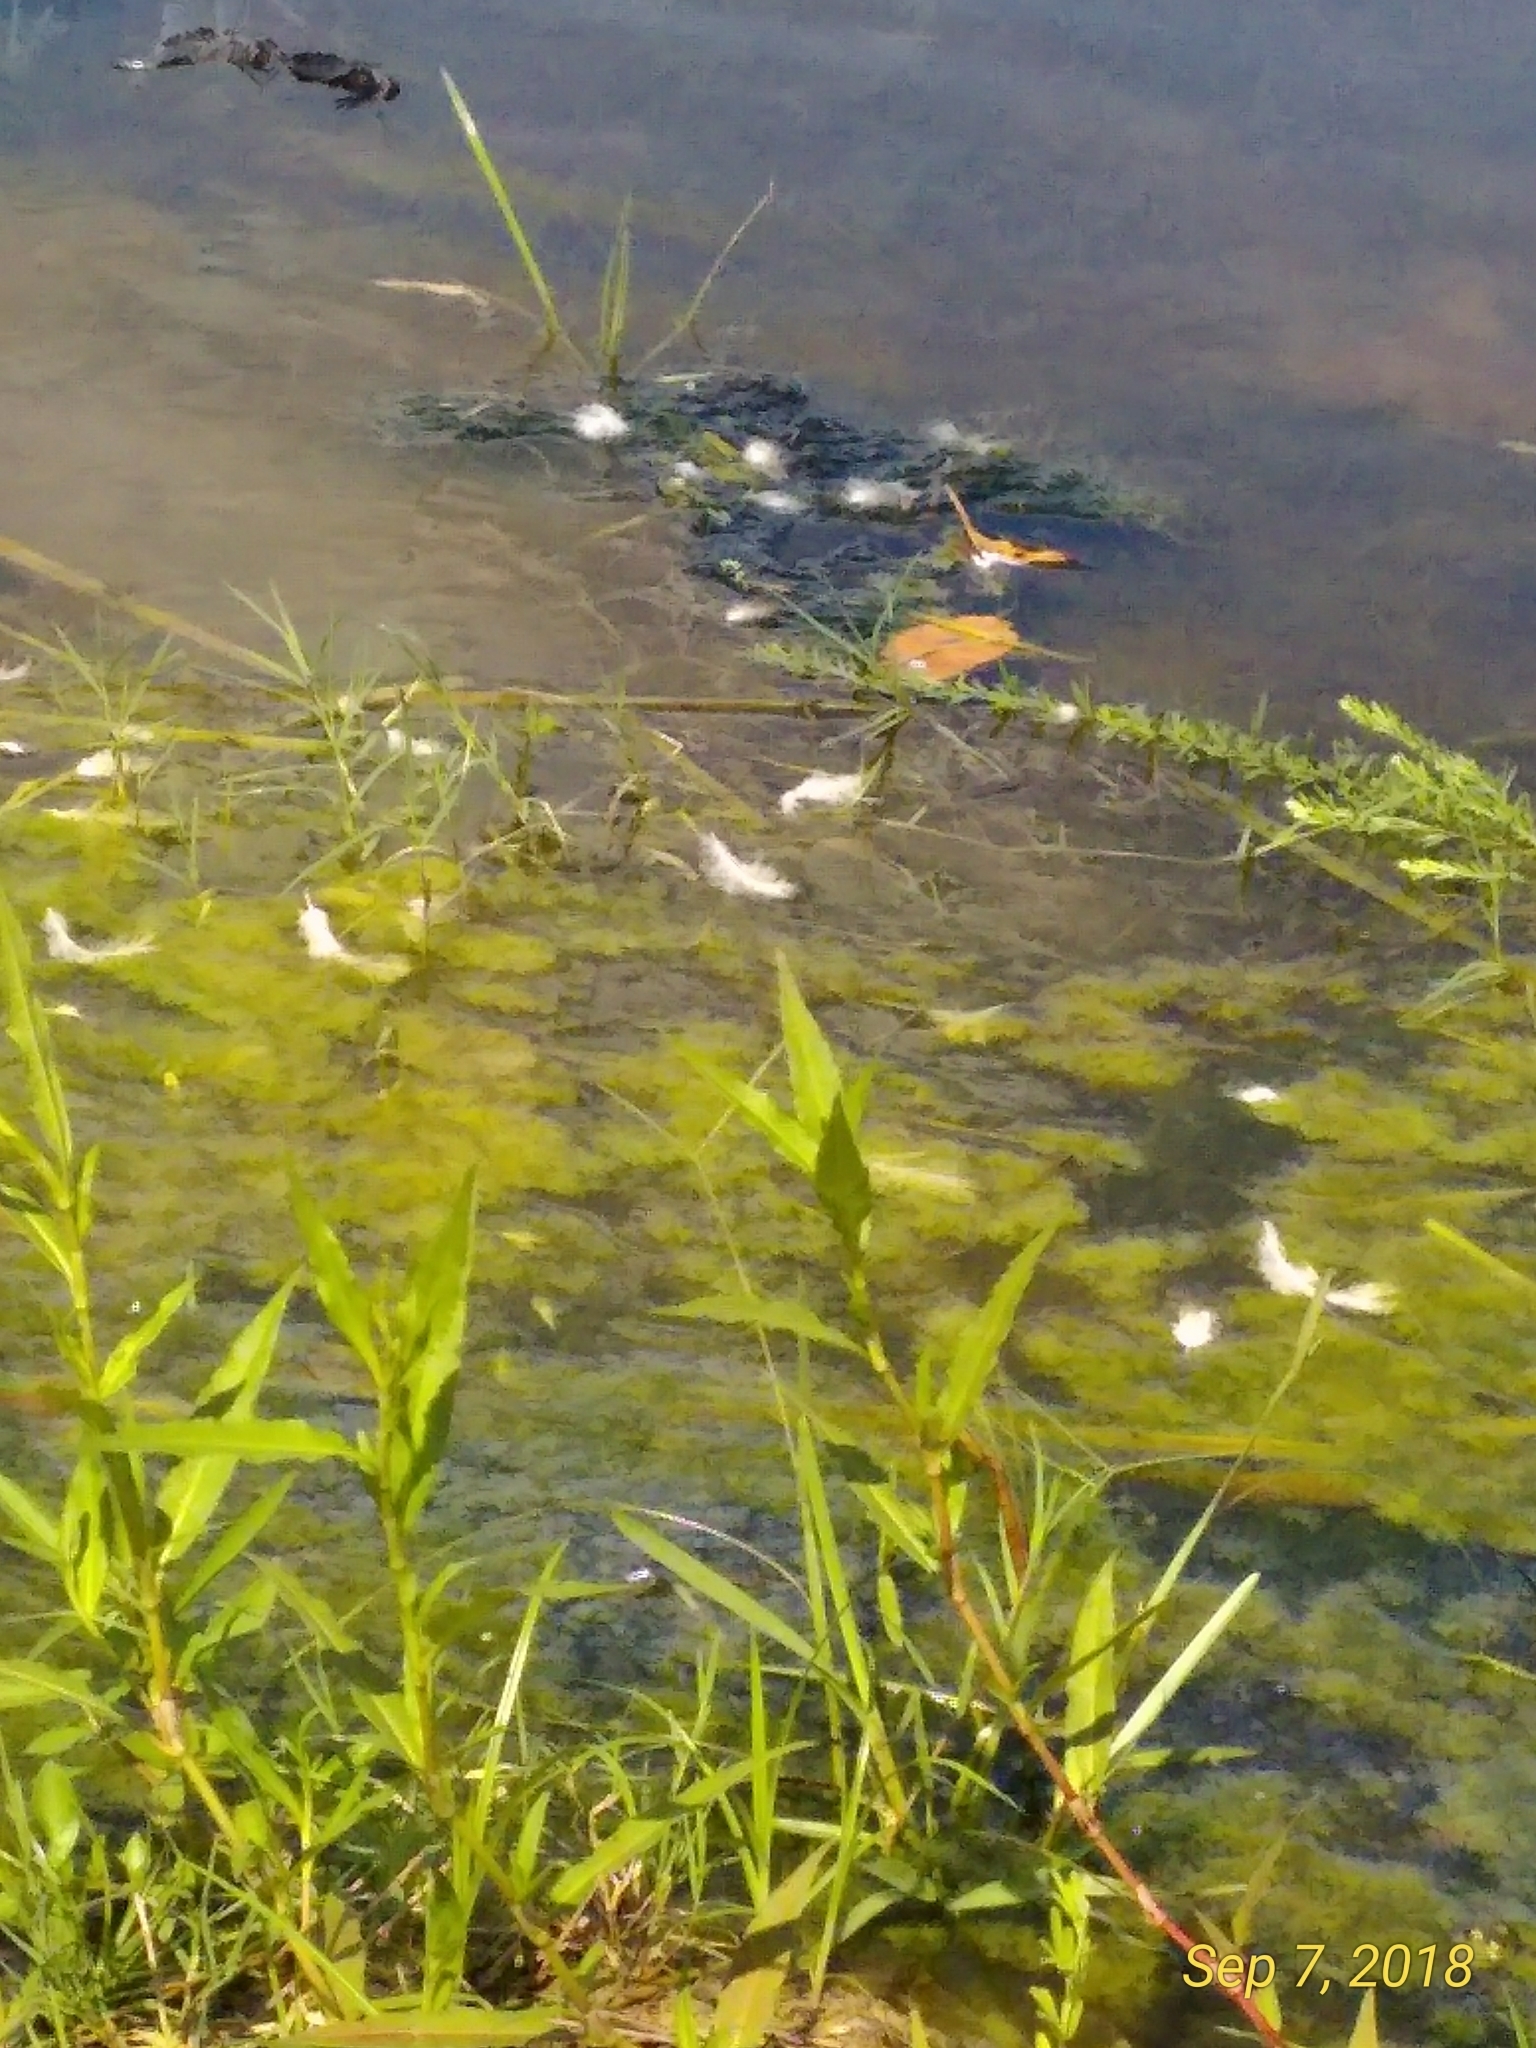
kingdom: Animalia
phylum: Arthropoda
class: Insecta
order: Odonata
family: Libellulidae
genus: Tramea
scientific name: Tramea lacerata
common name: Black saddlebags
